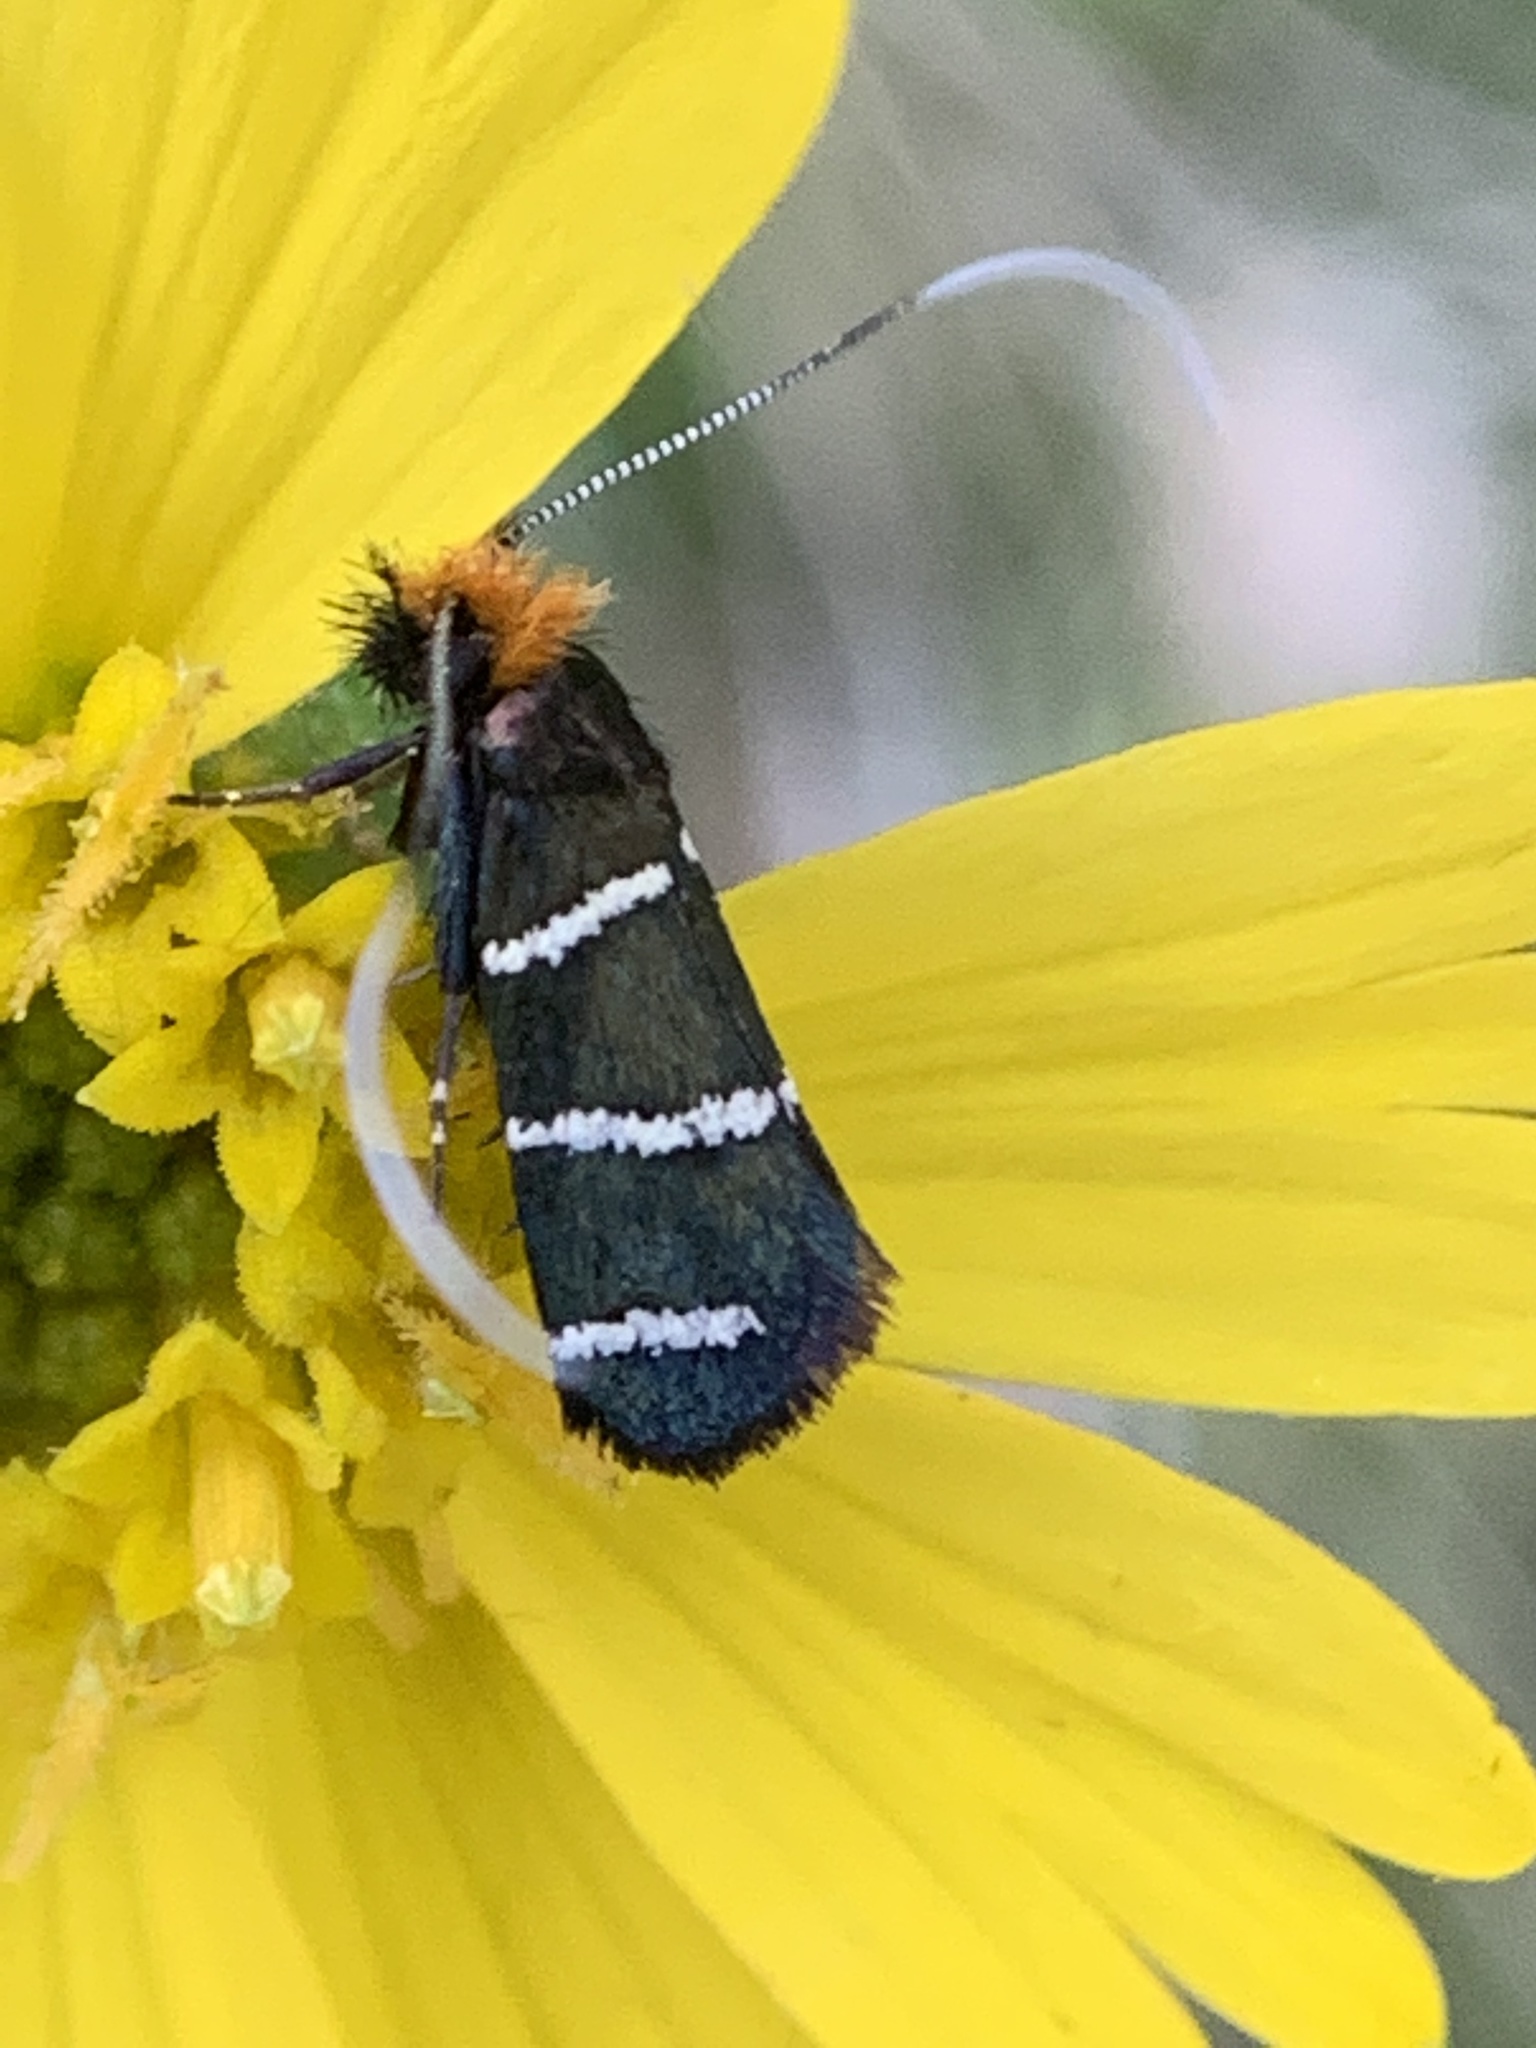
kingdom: Animalia
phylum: Arthropoda
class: Insecta
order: Lepidoptera
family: Adelidae
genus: Adela
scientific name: Adela trigrapha
